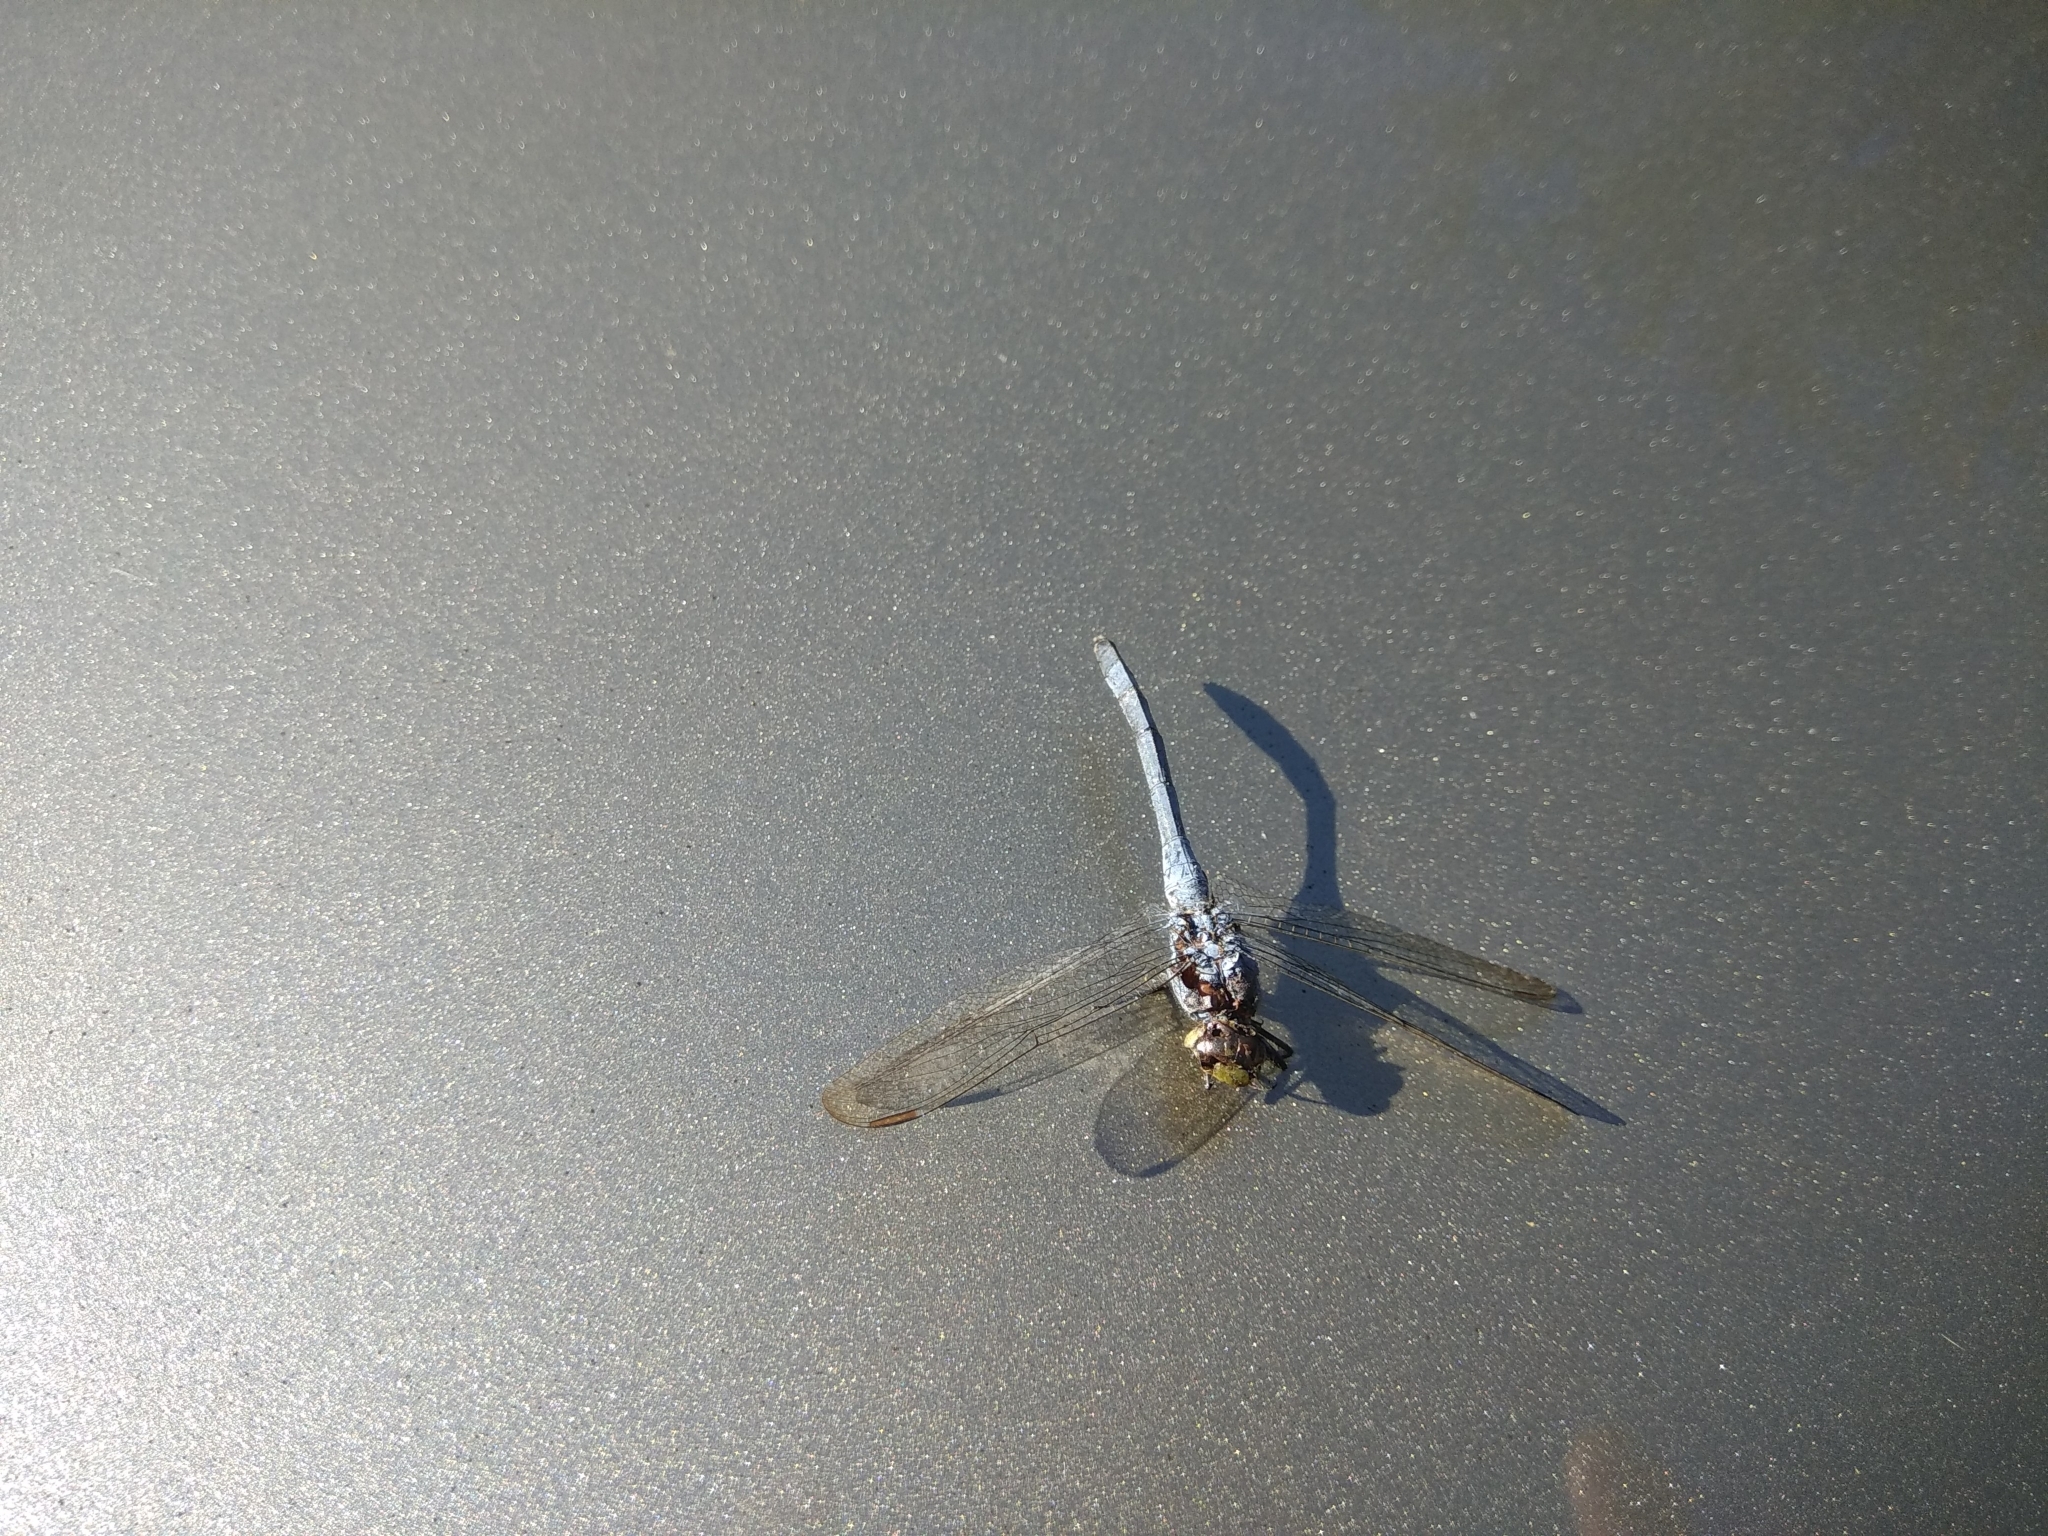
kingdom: Animalia
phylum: Arthropoda
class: Insecta
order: Odonata
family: Libellulidae
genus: Erythemis
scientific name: Erythemis simplicicollis
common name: Eastern pondhawk
